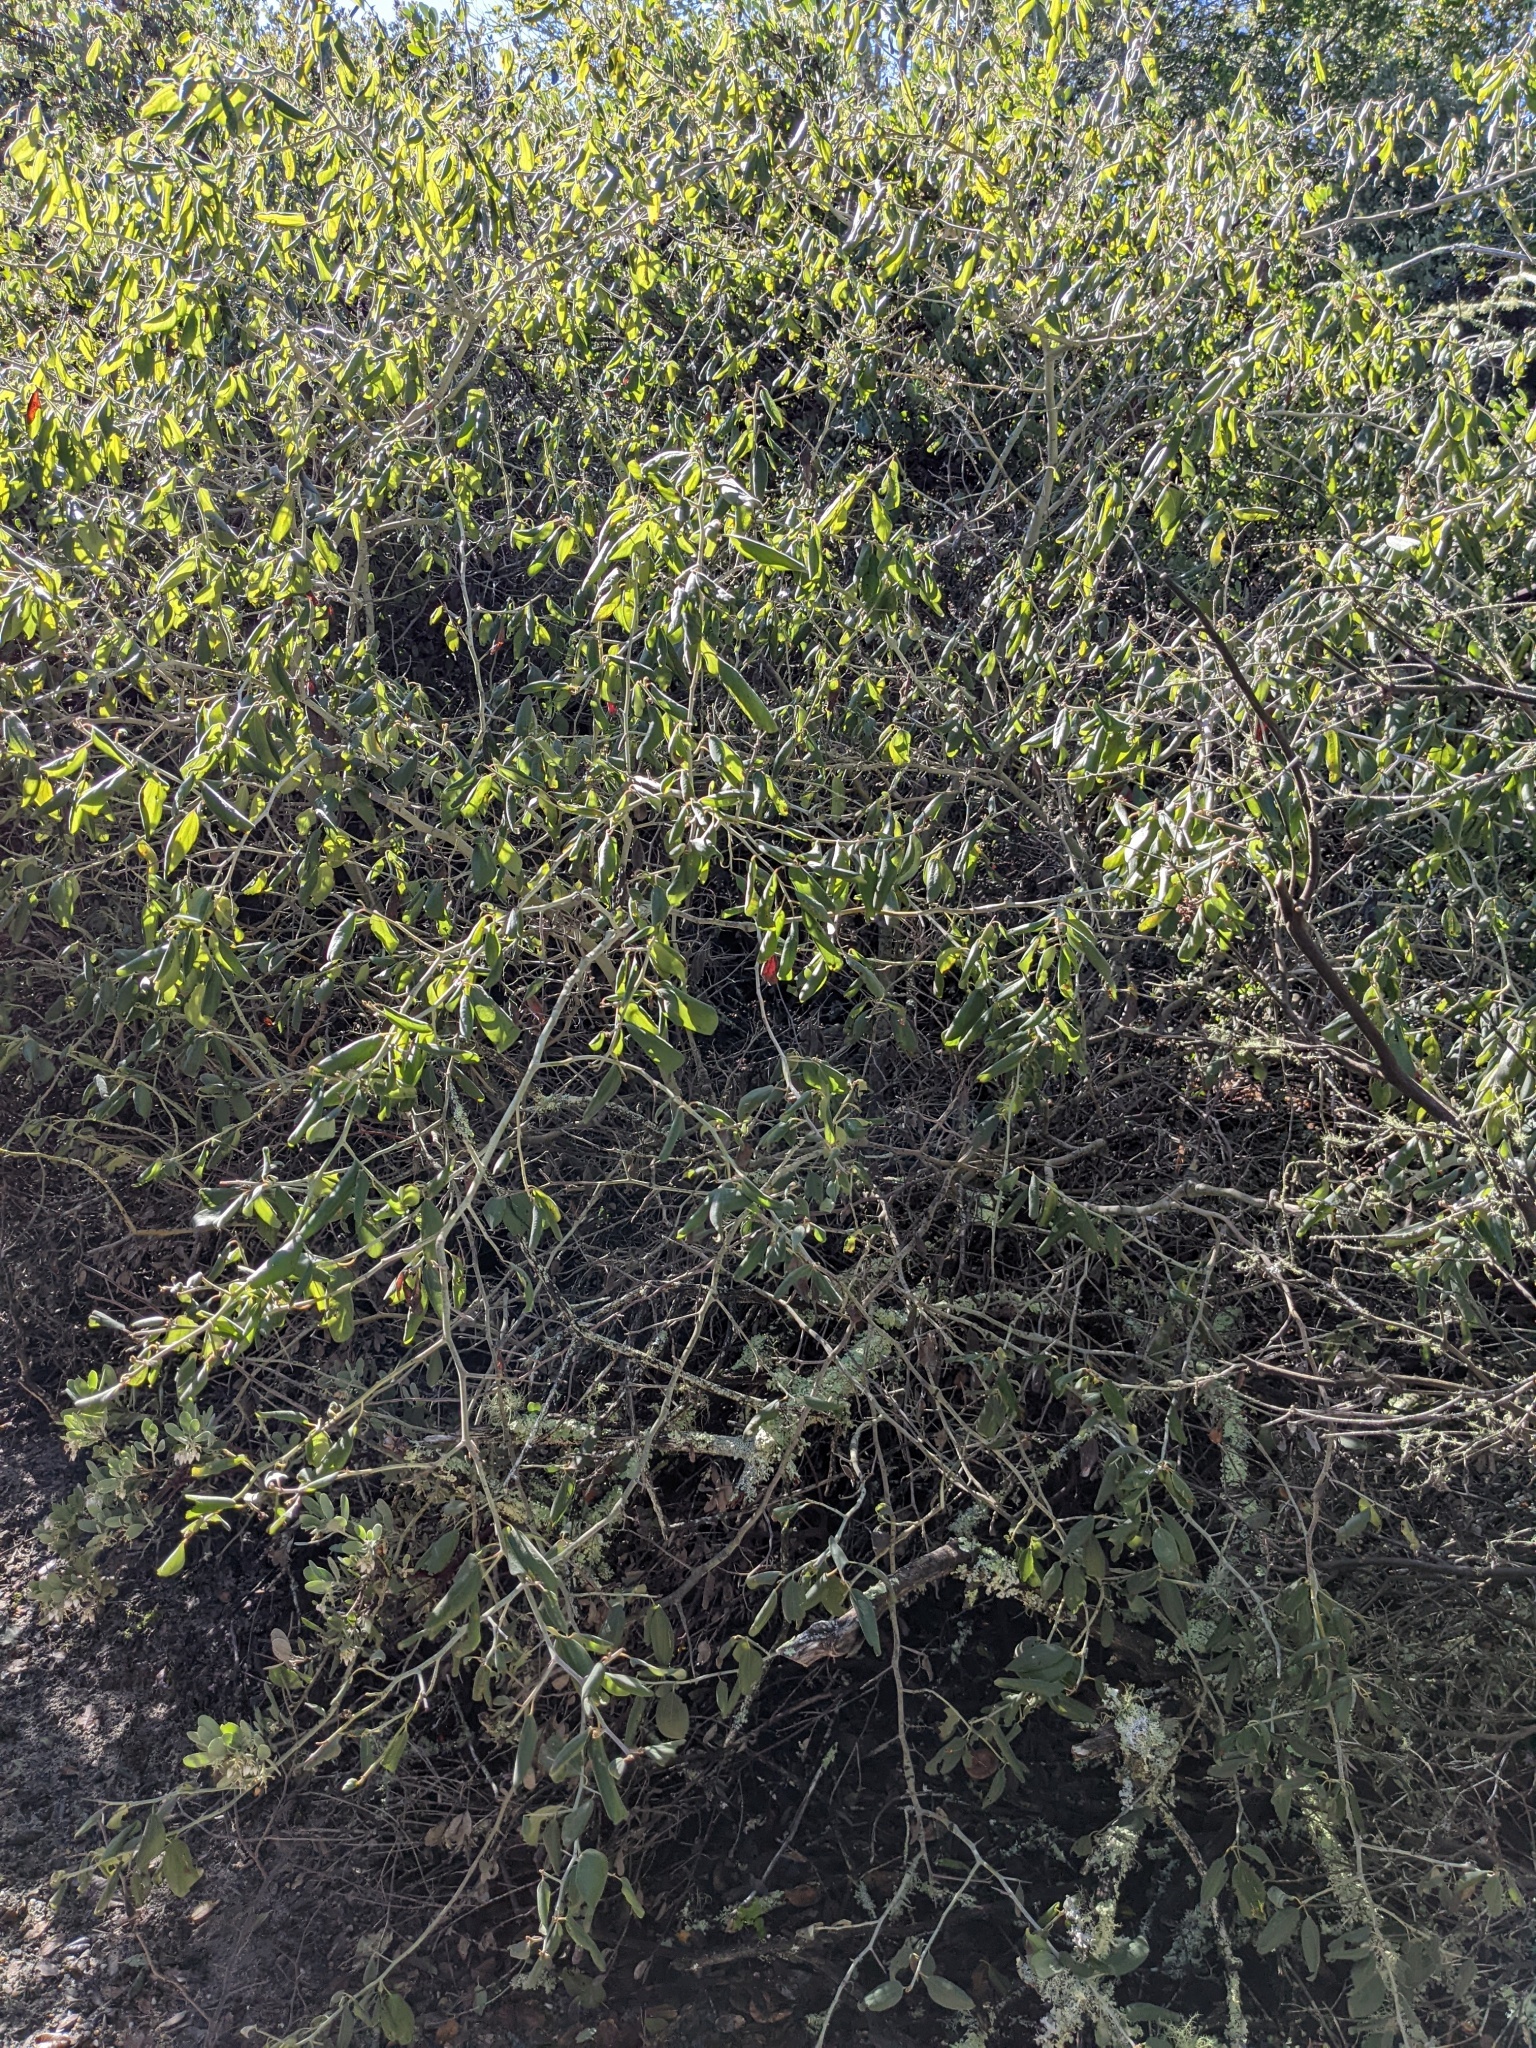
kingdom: Plantae
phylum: Tracheophyta
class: Magnoliopsida
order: Rosales
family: Rhamnaceae
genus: Ceanothus
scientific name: Ceanothus incanus
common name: Coast whitethorn
